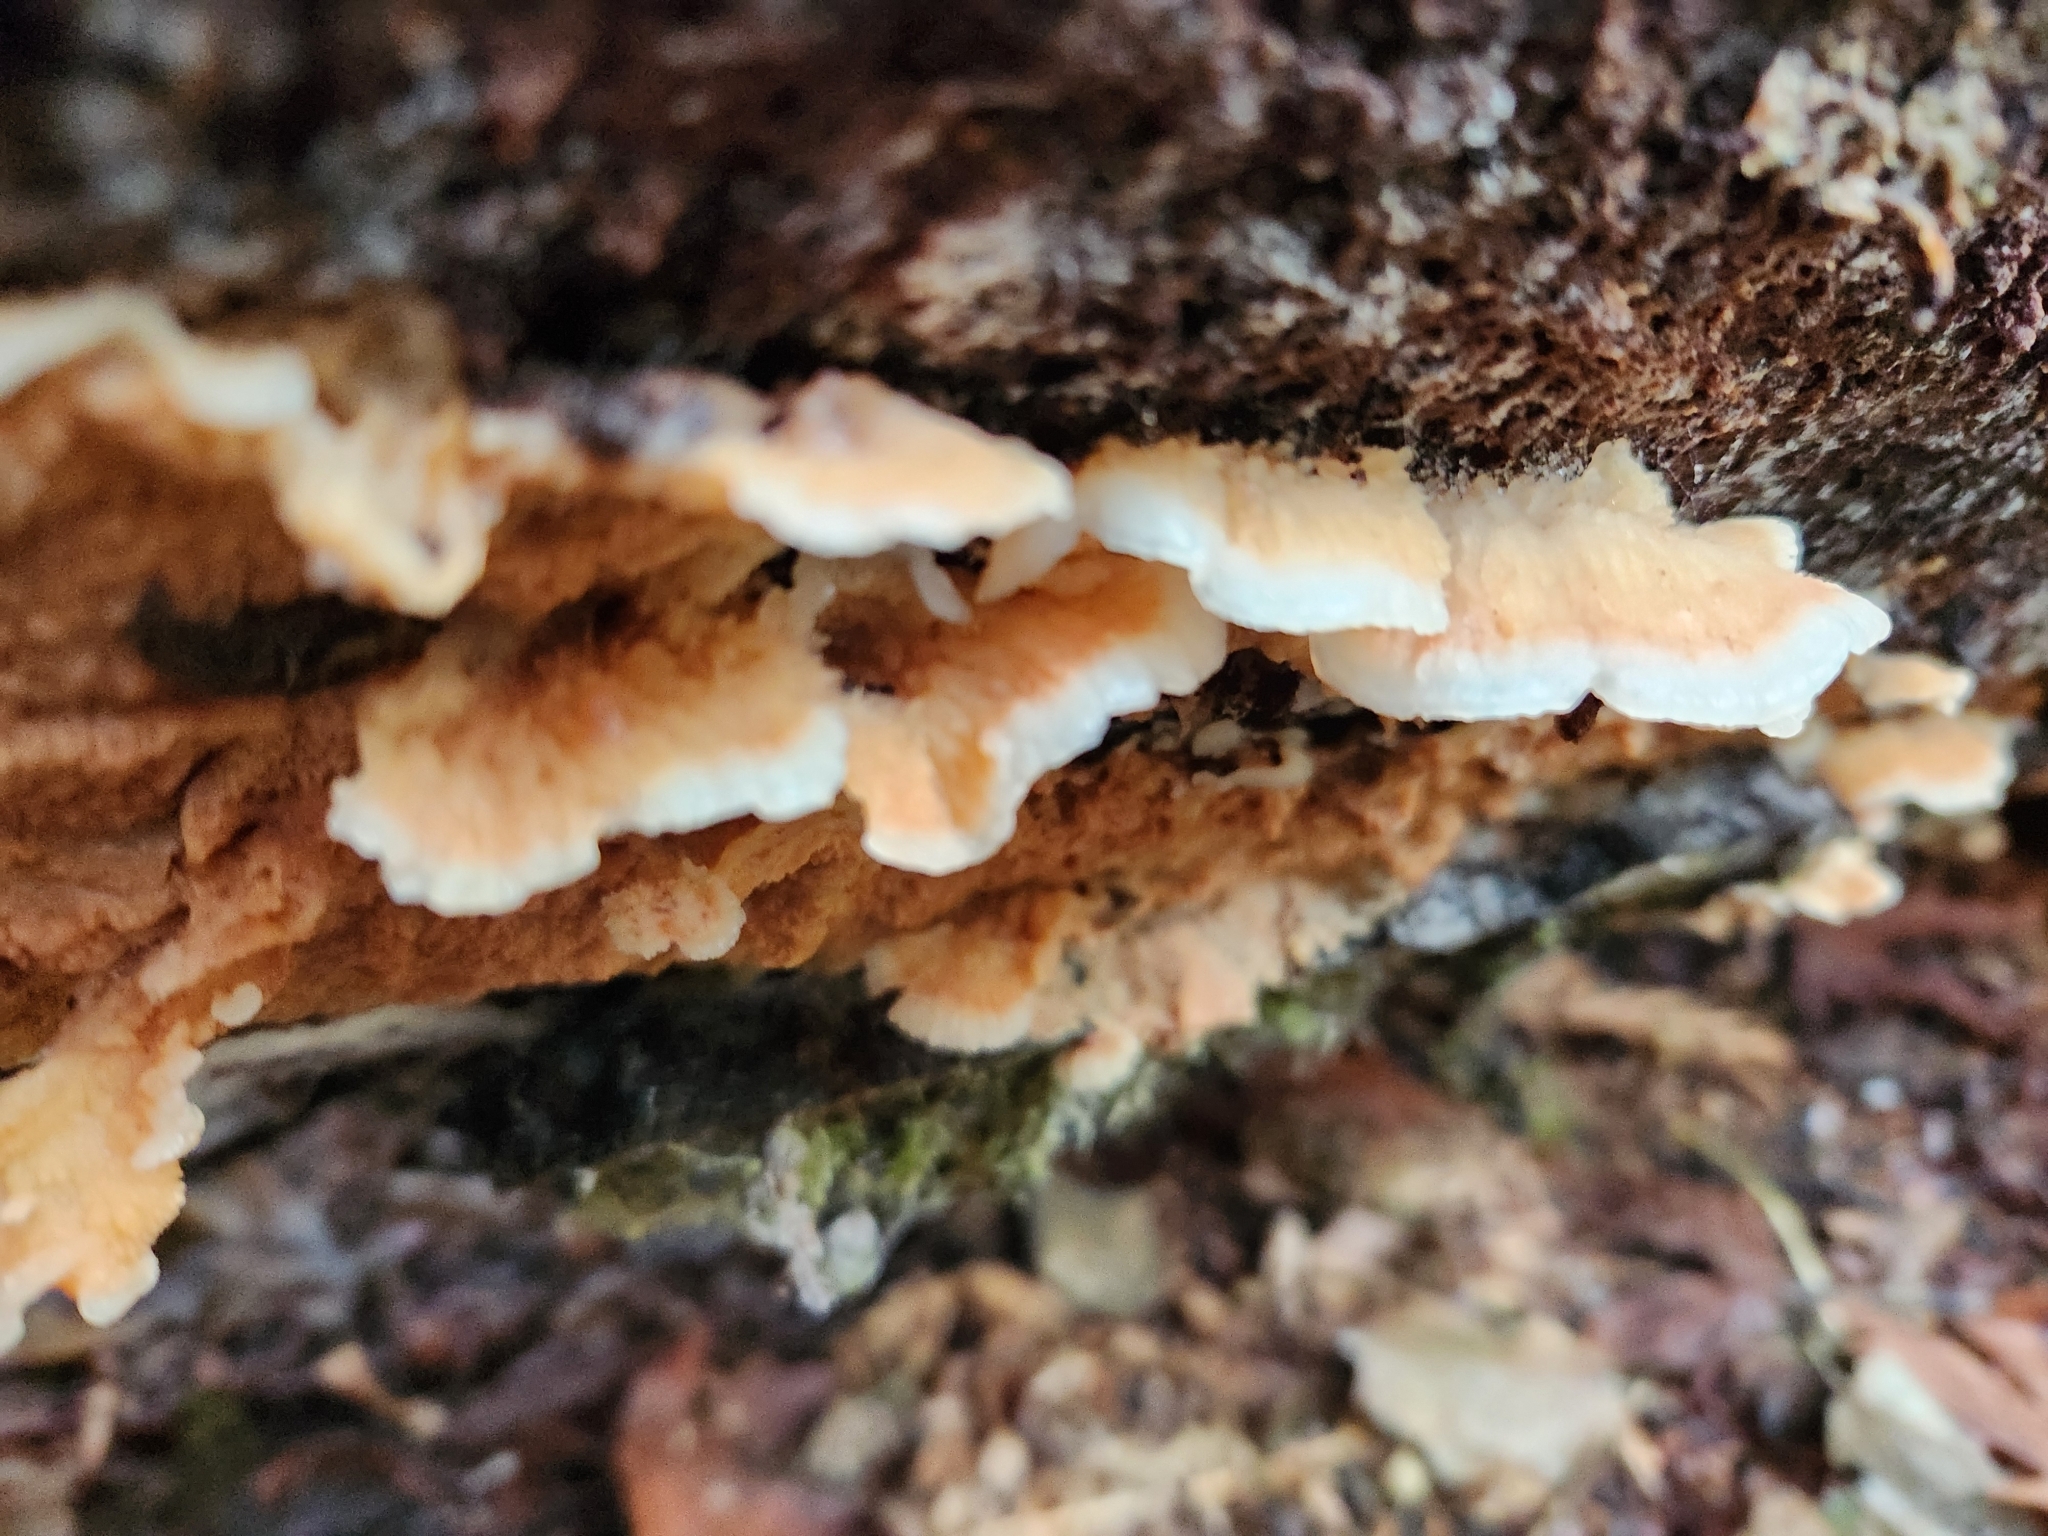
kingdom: Fungi
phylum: Basidiomycota
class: Agaricomycetes
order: Polyporales
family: Meruliaceae
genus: Phlebia
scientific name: Phlebia tremellosa
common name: Jelly rot
